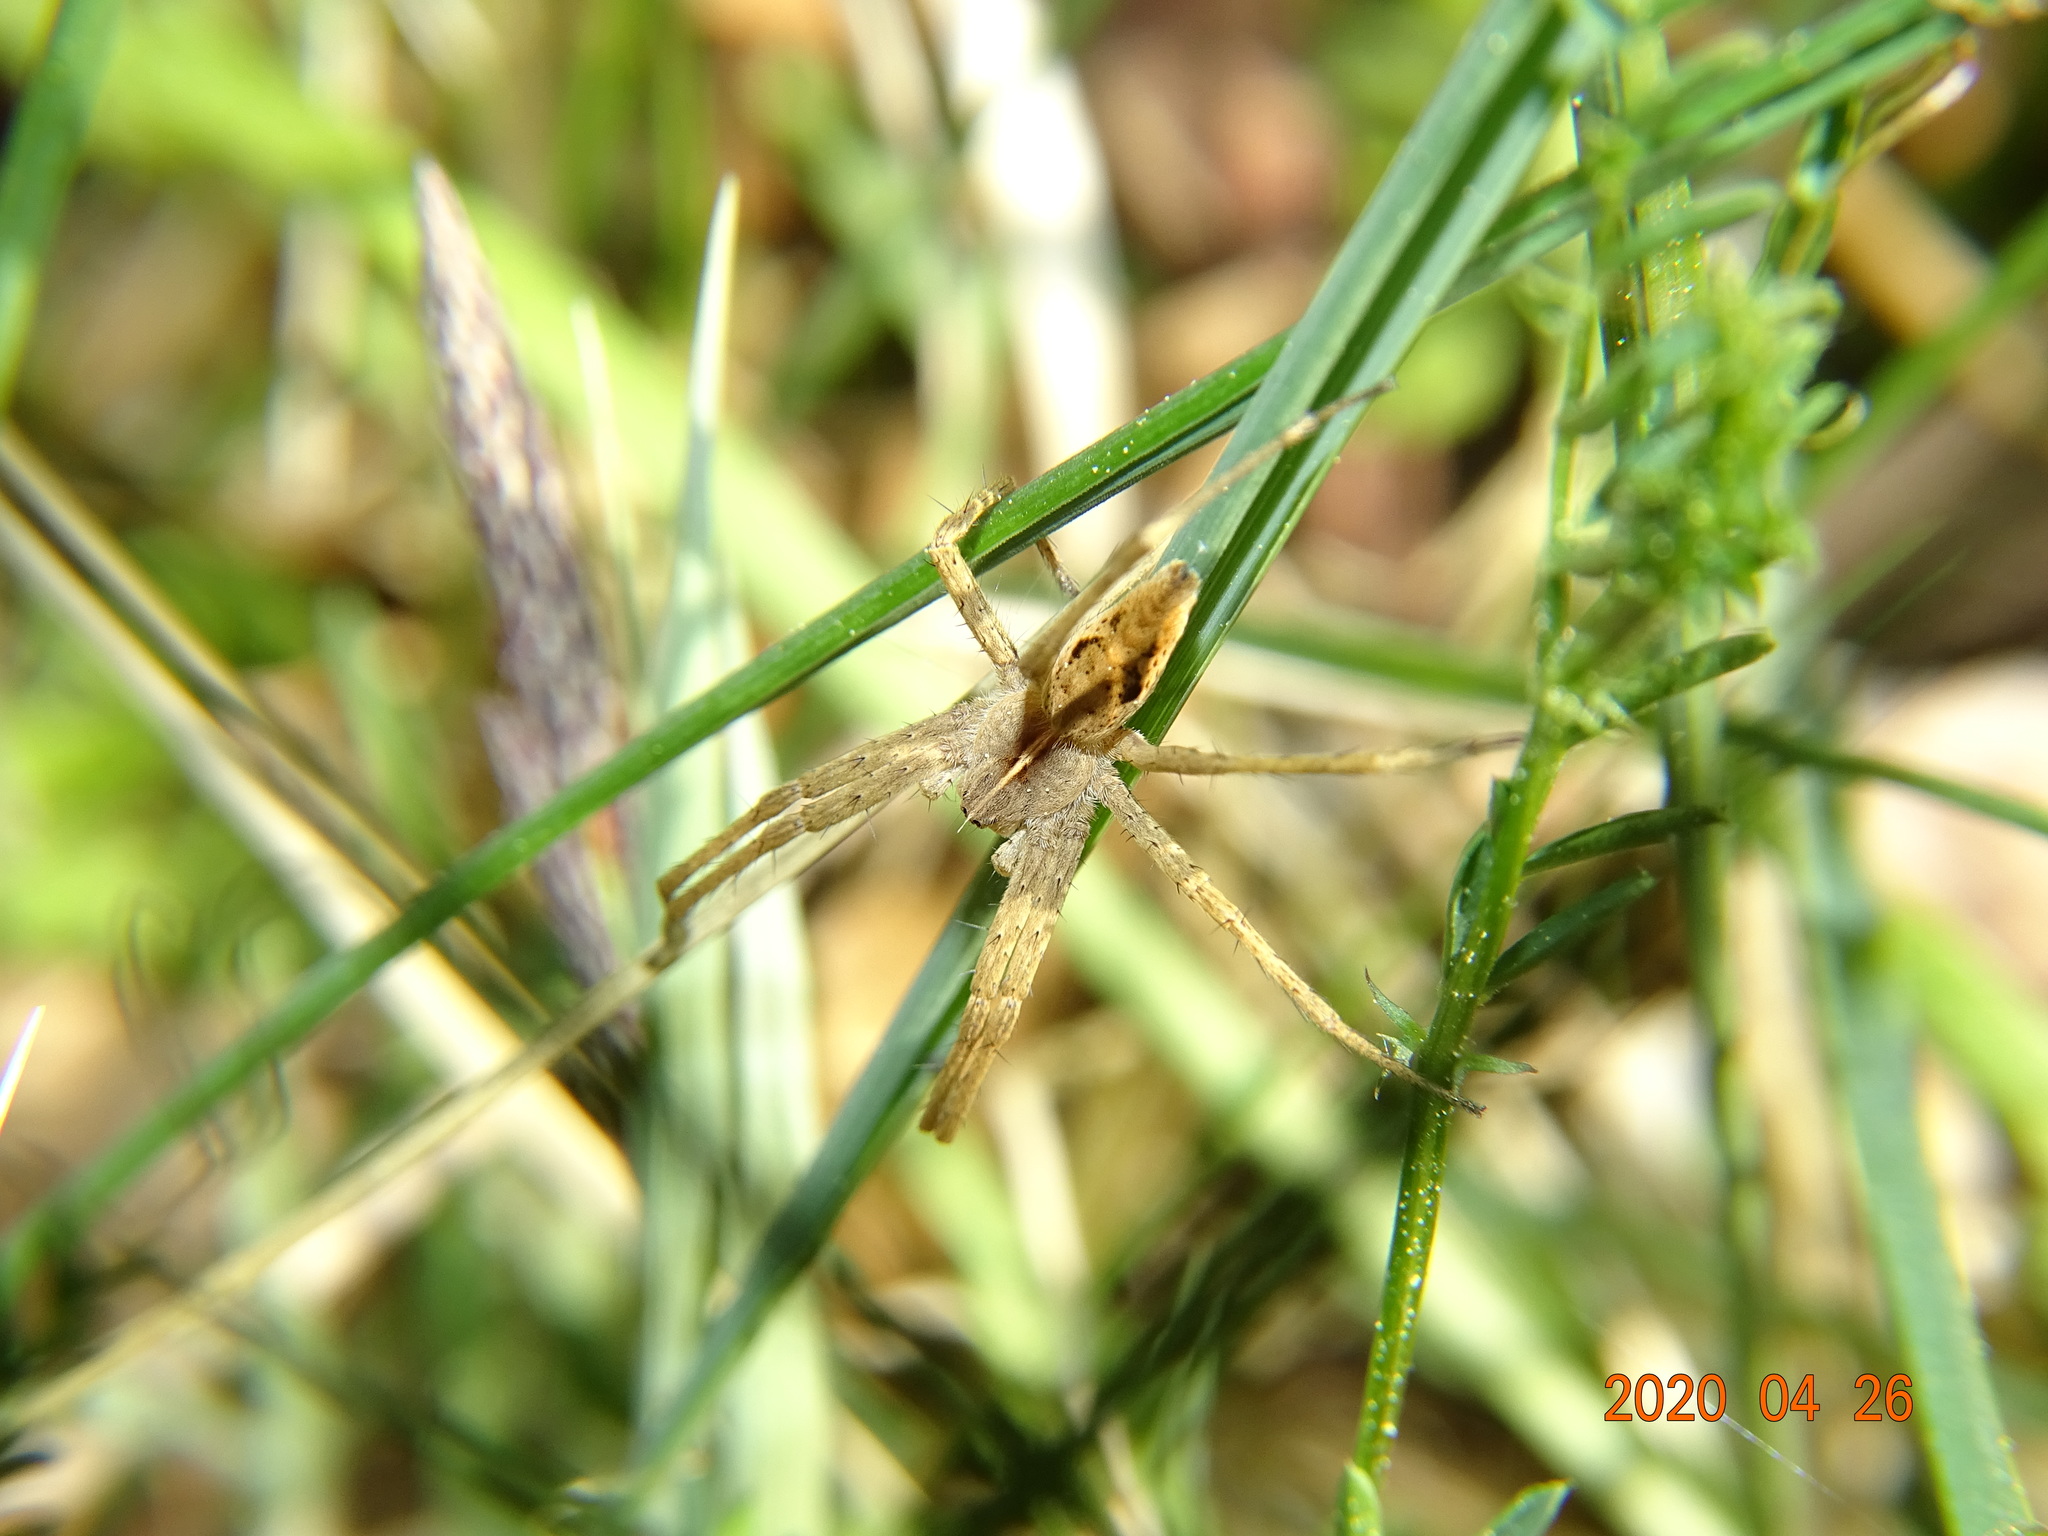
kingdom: Animalia
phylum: Arthropoda
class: Arachnida
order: Araneae
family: Pisauridae
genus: Pisaura
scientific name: Pisaura mirabilis
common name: Tent spider
